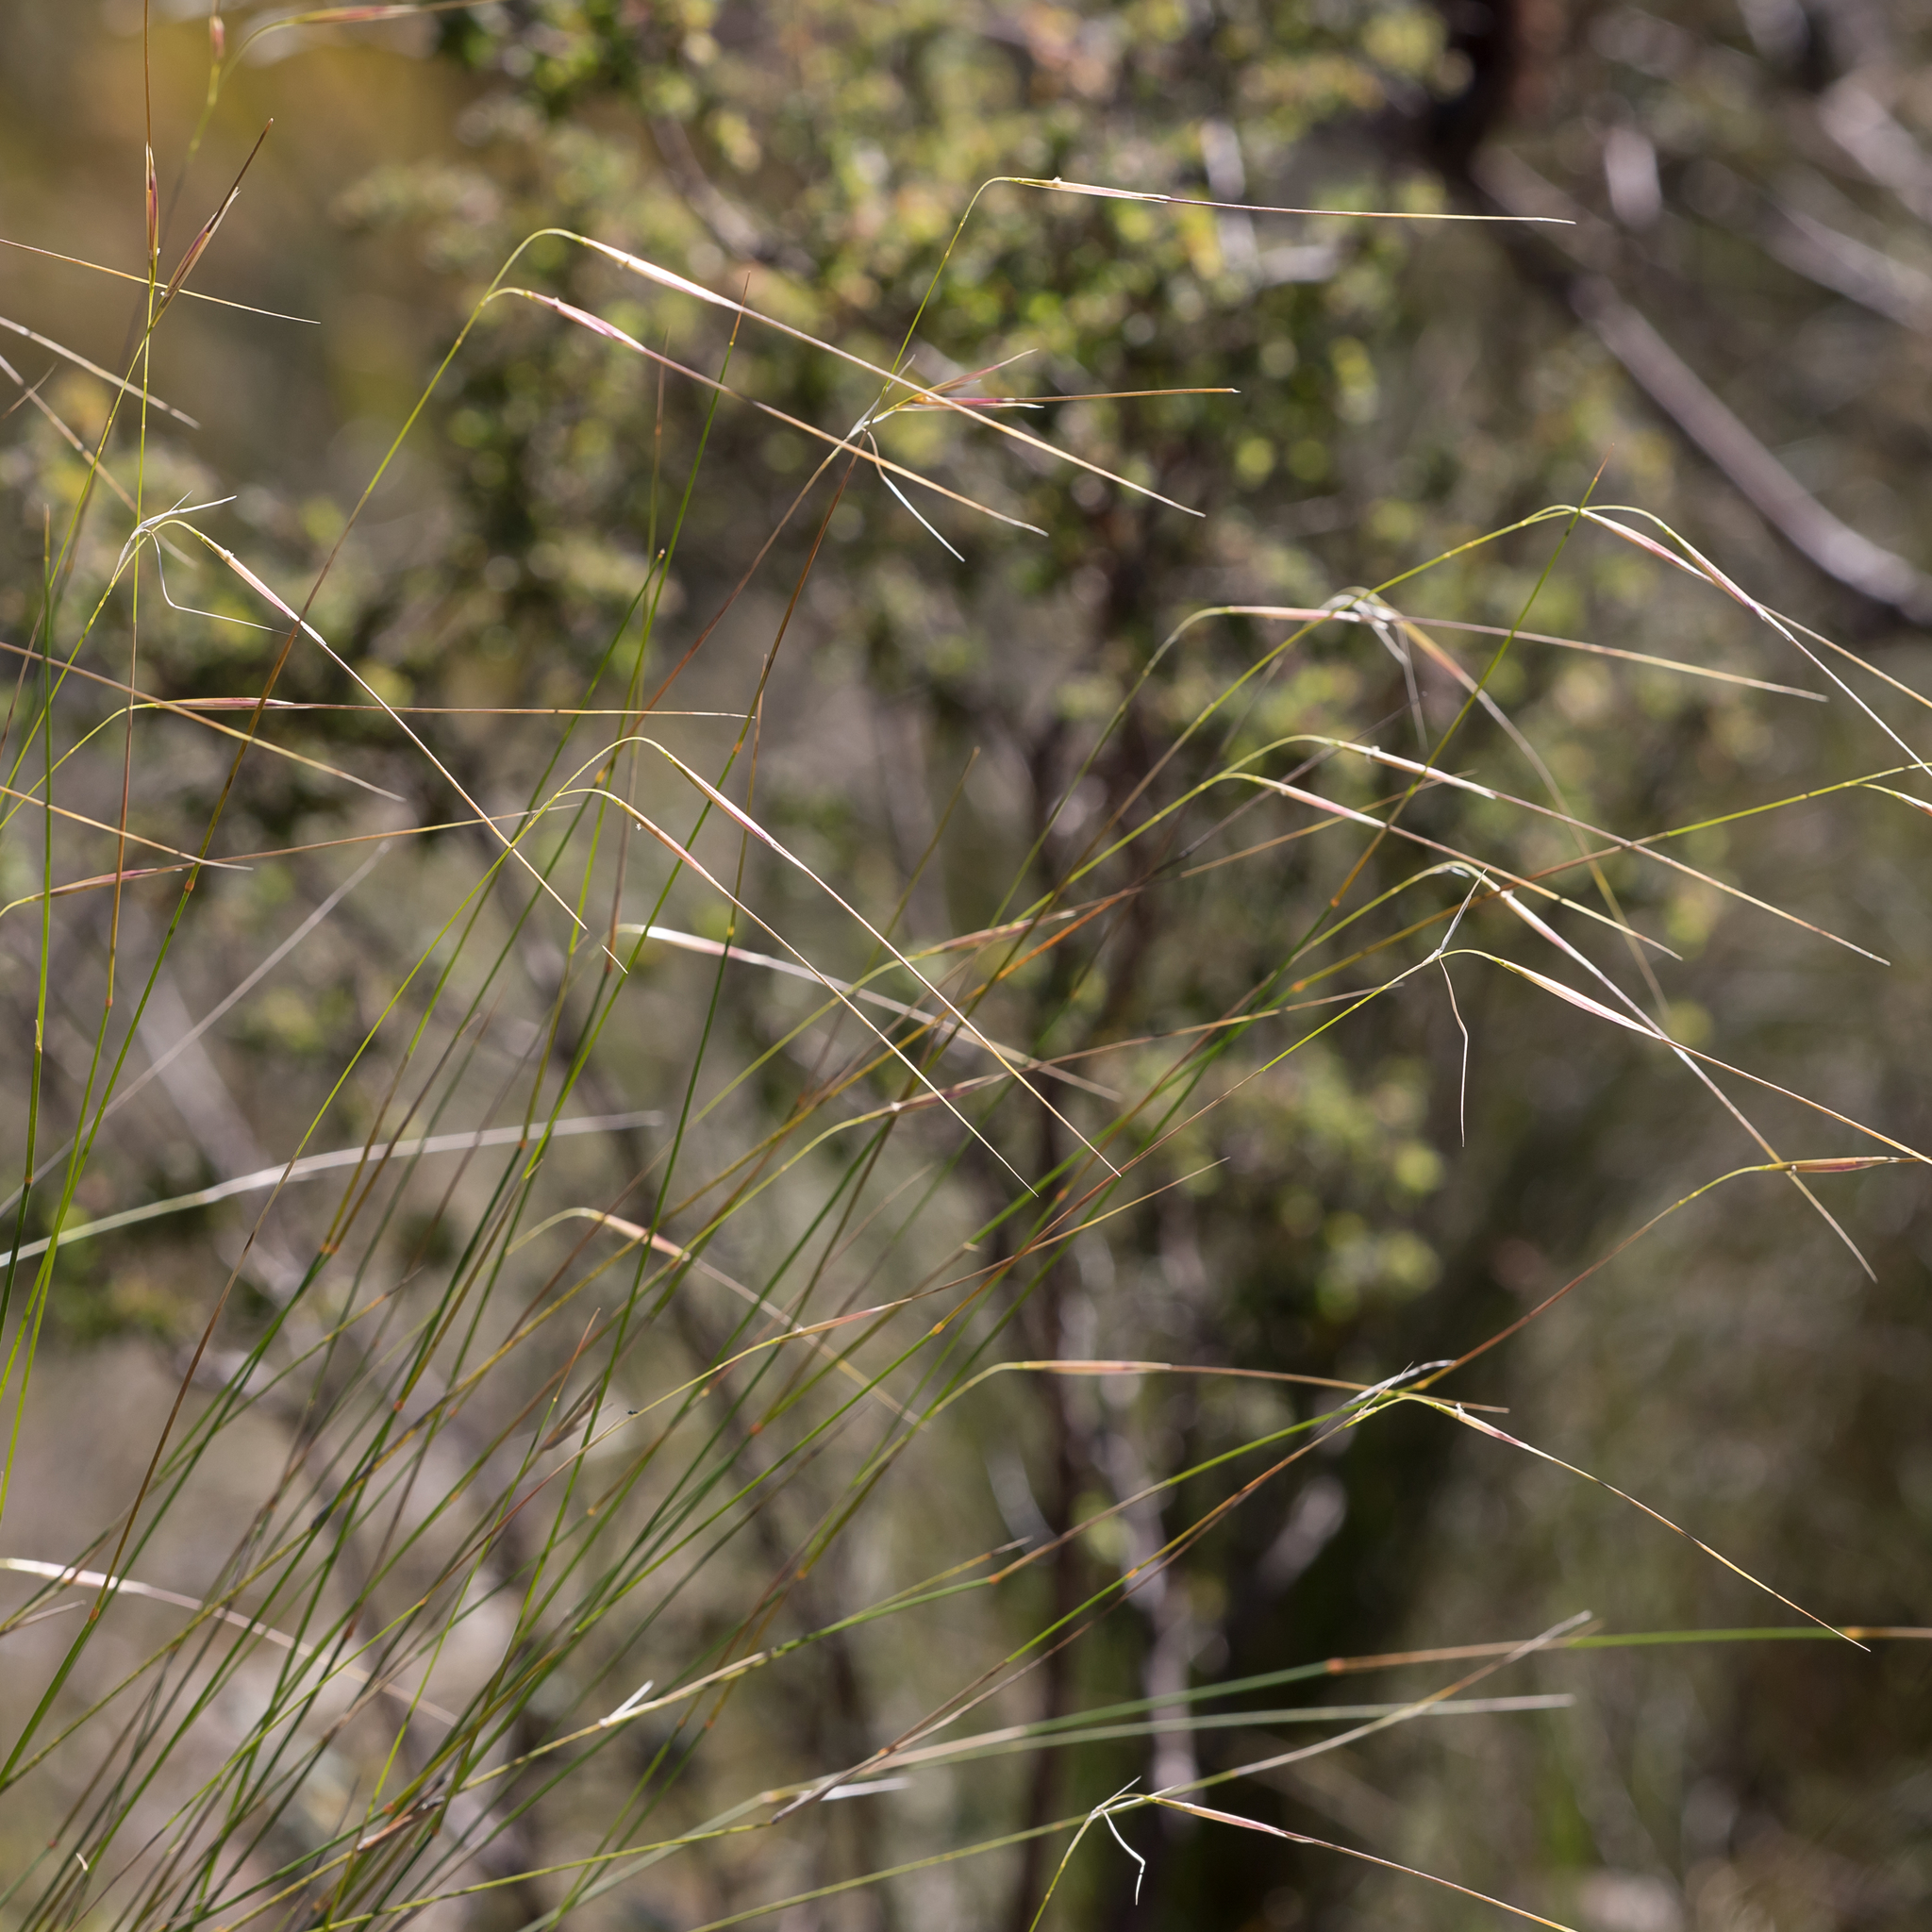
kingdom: Plantae
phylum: Tracheophyta
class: Liliopsida
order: Poales
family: Poaceae
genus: Austrostipa
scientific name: Austrostipa muelleri
